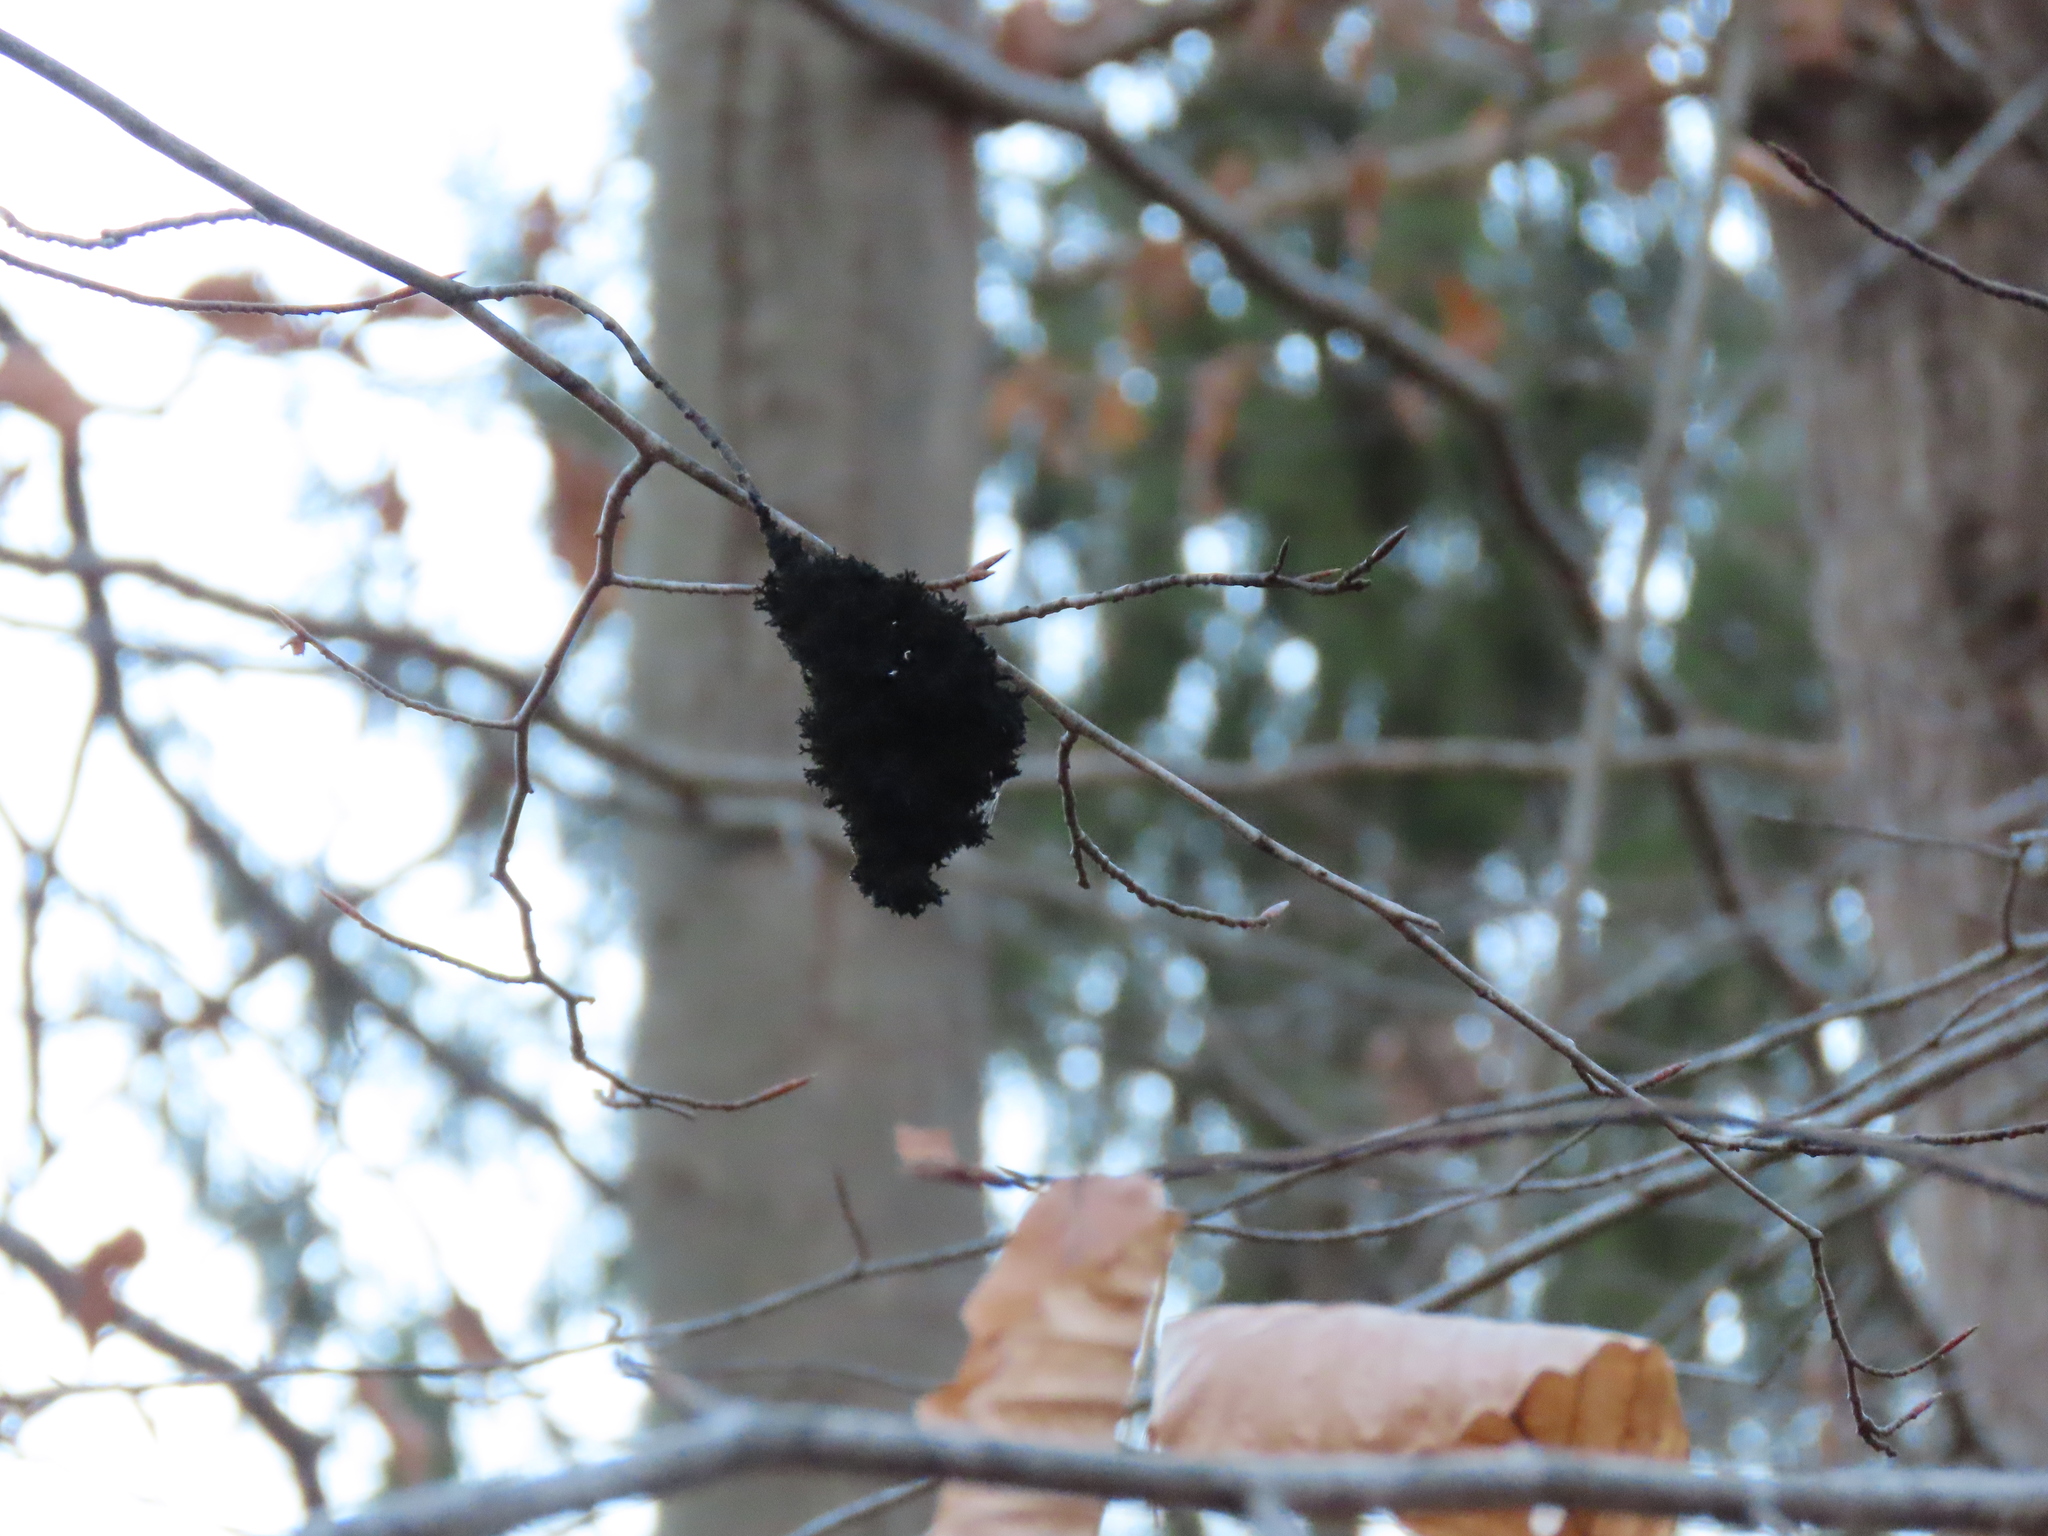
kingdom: Fungi
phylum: Ascomycota
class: Dothideomycetes
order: Capnodiales
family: Capnodiaceae
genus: Scorias
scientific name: Scorias spongiosa
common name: Black sooty mold
